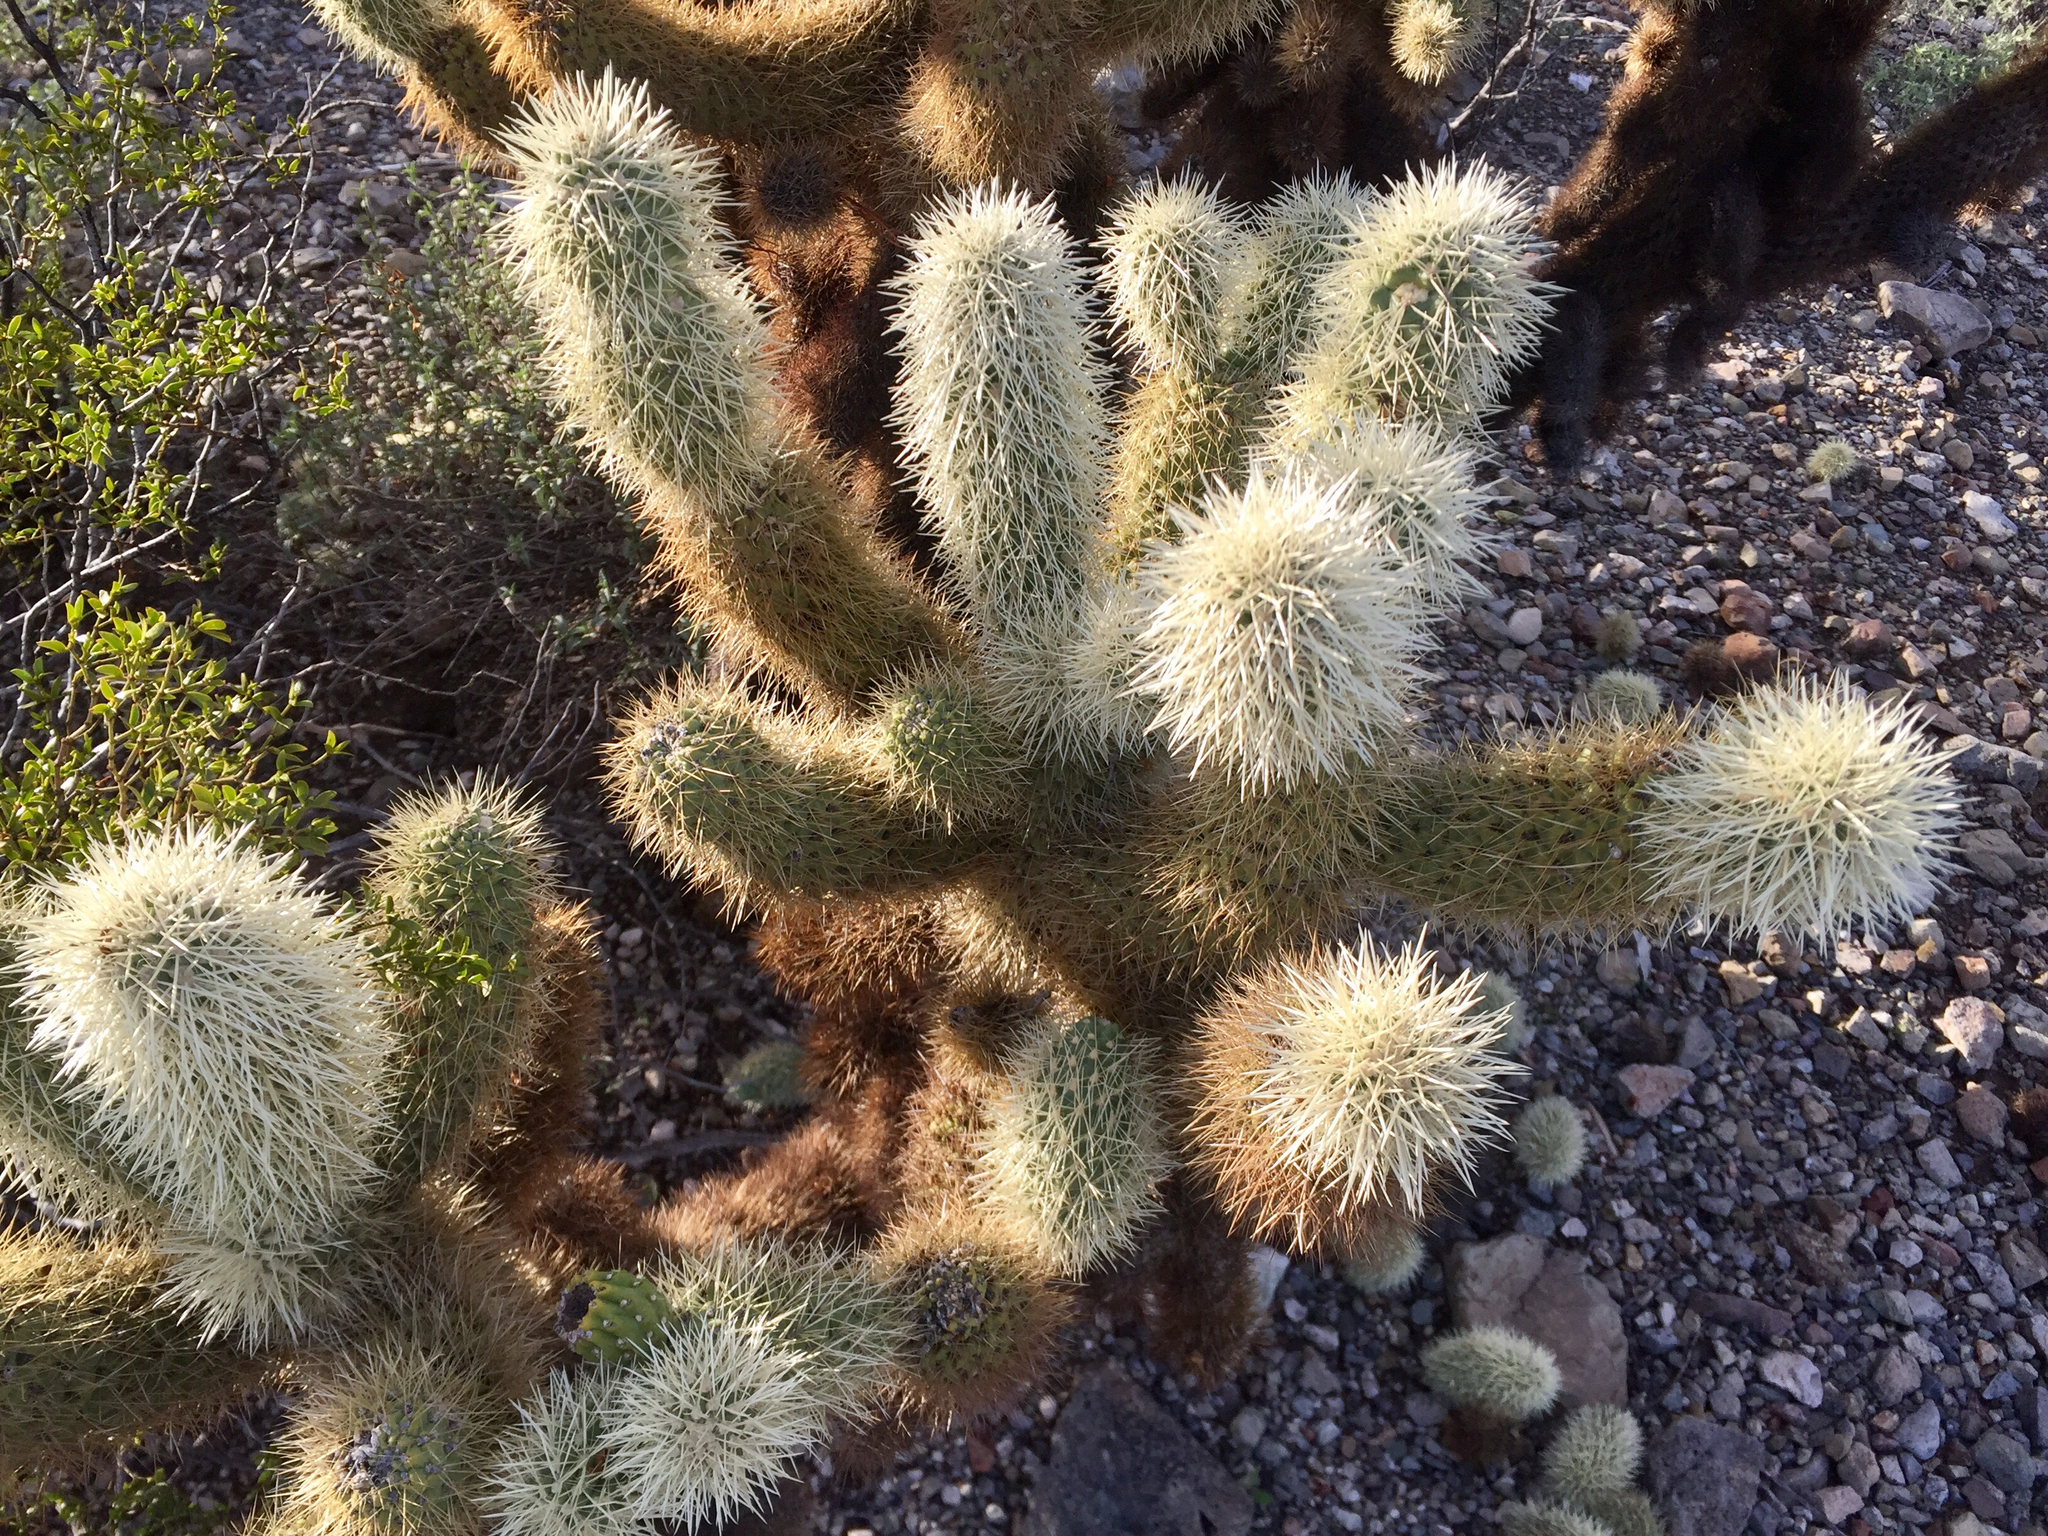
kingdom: Plantae
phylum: Tracheophyta
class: Magnoliopsida
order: Caryophyllales
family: Cactaceae
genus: Cylindropuntia
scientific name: Cylindropuntia fosbergii
